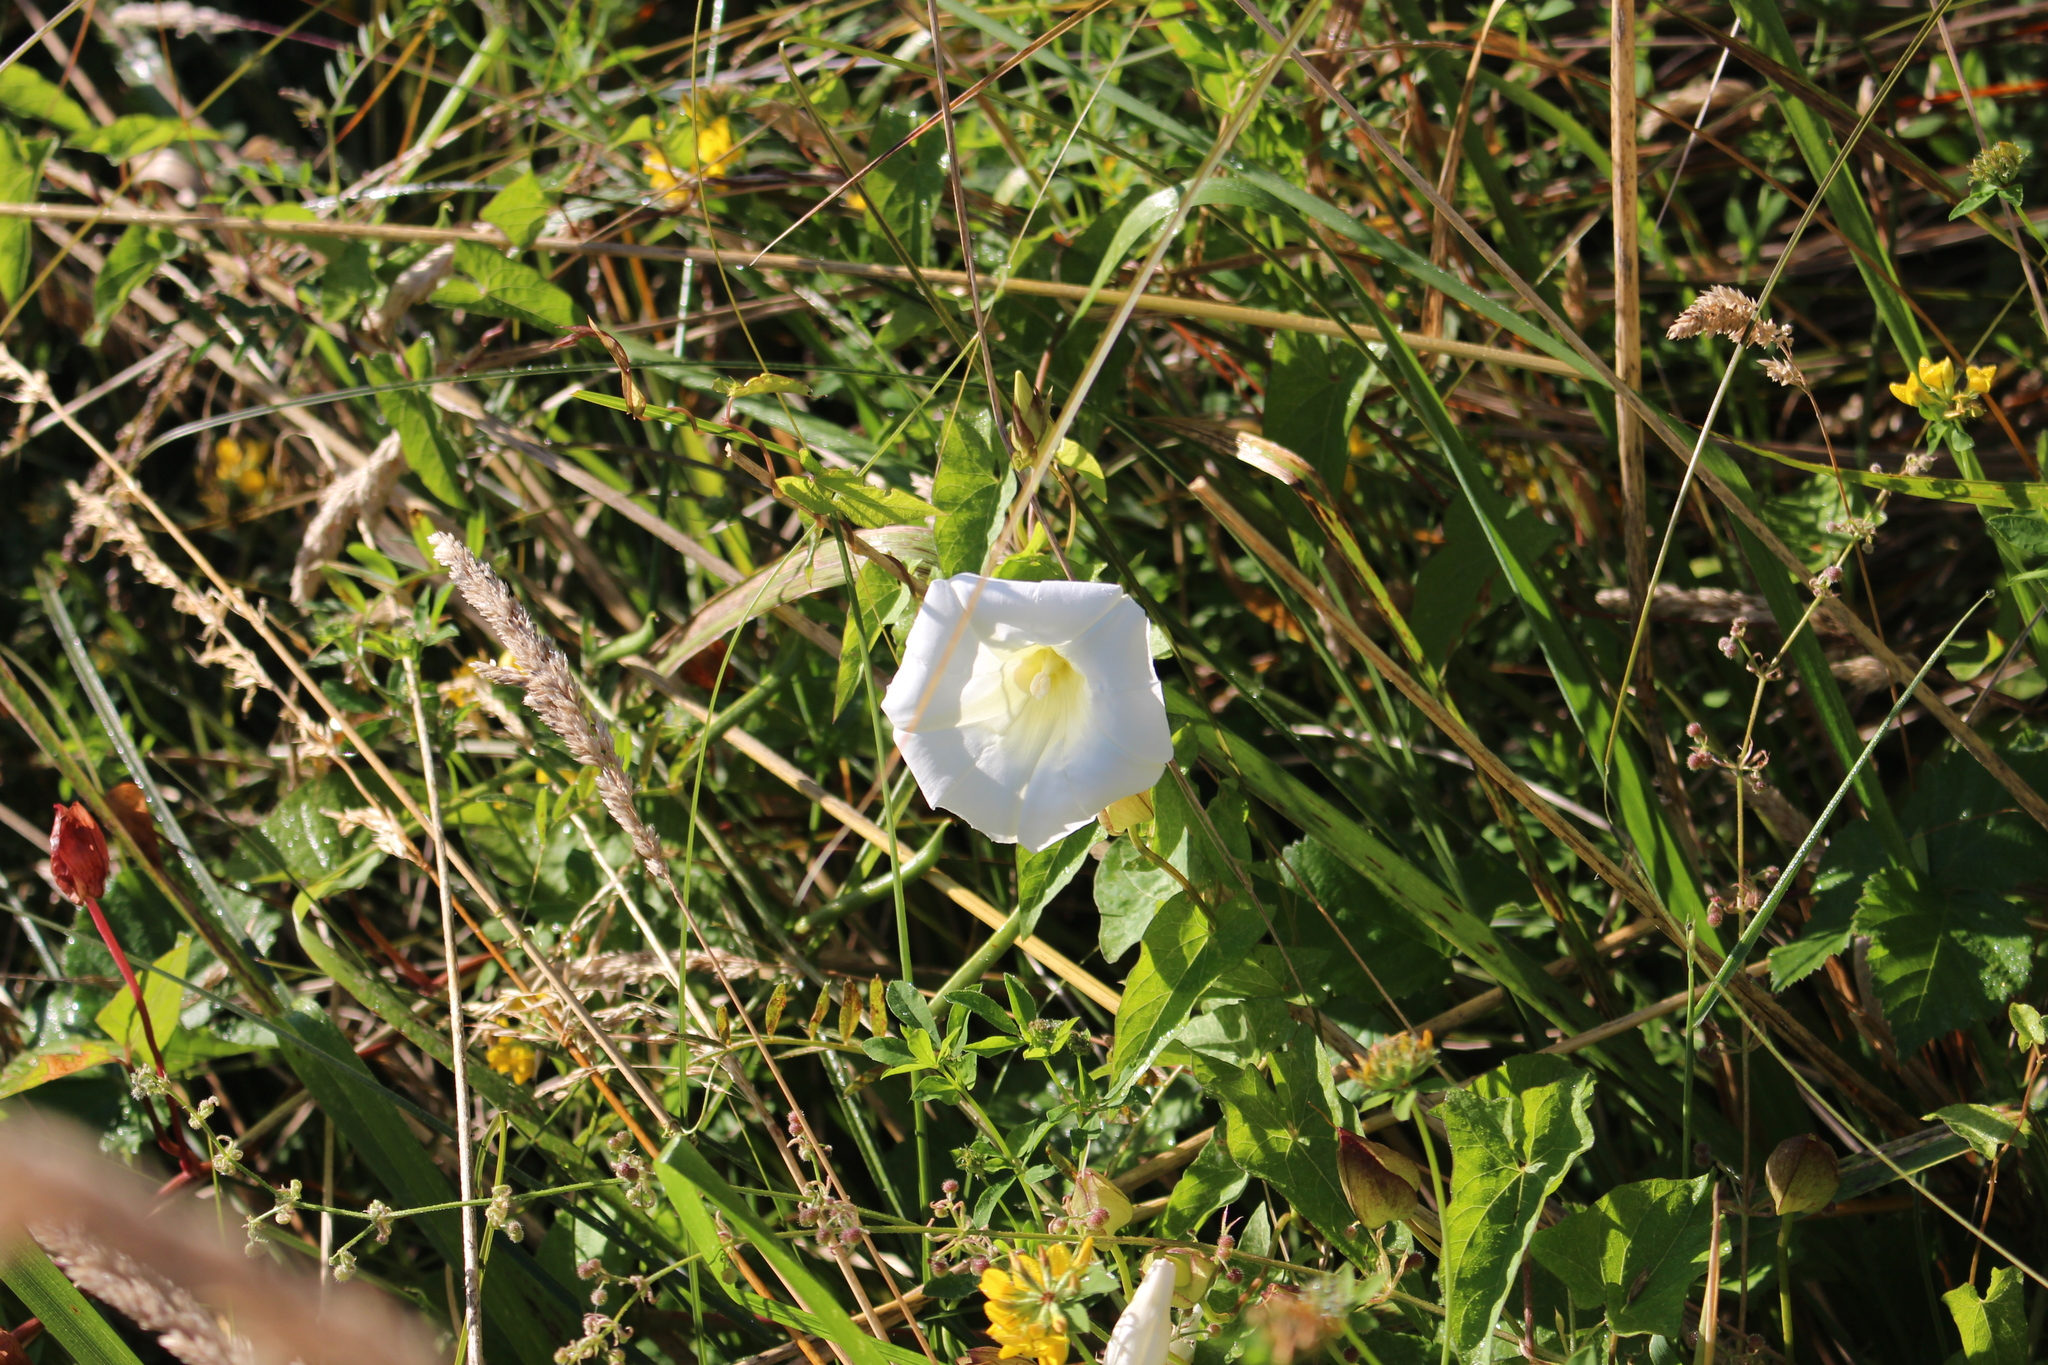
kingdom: Plantae
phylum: Tracheophyta
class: Magnoliopsida
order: Solanales
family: Convolvulaceae
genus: Calystegia
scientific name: Calystegia silvatica
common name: Large bindweed
